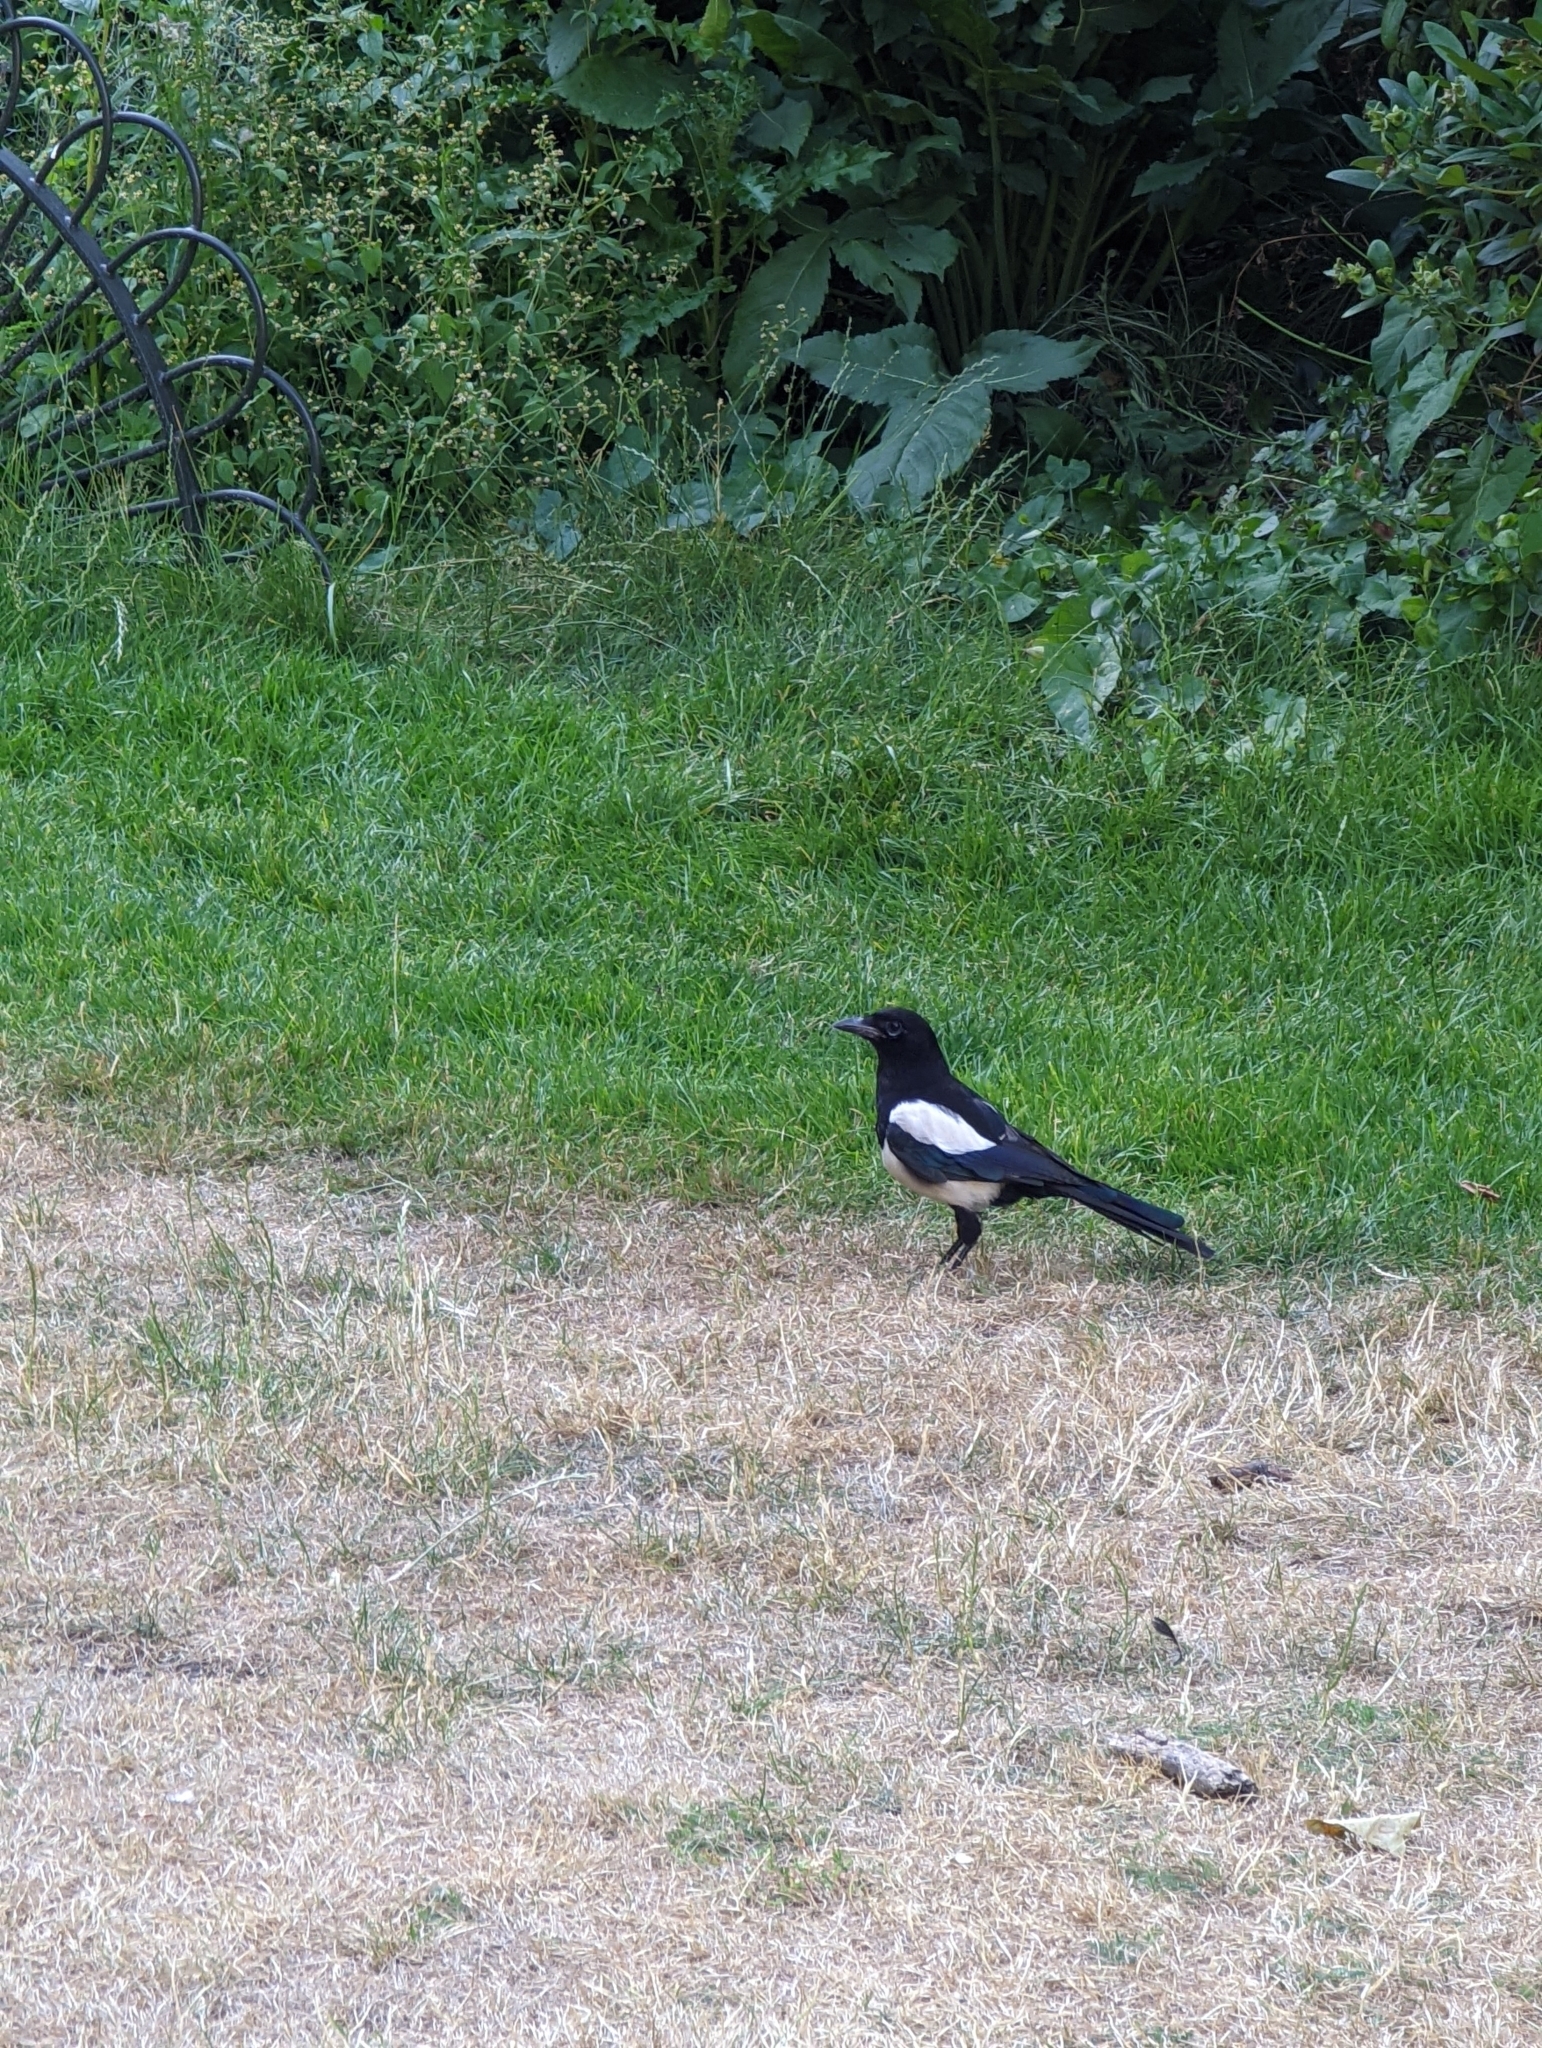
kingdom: Animalia
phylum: Chordata
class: Aves
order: Passeriformes
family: Corvidae
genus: Pica
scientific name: Pica pica
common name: Eurasian magpie
